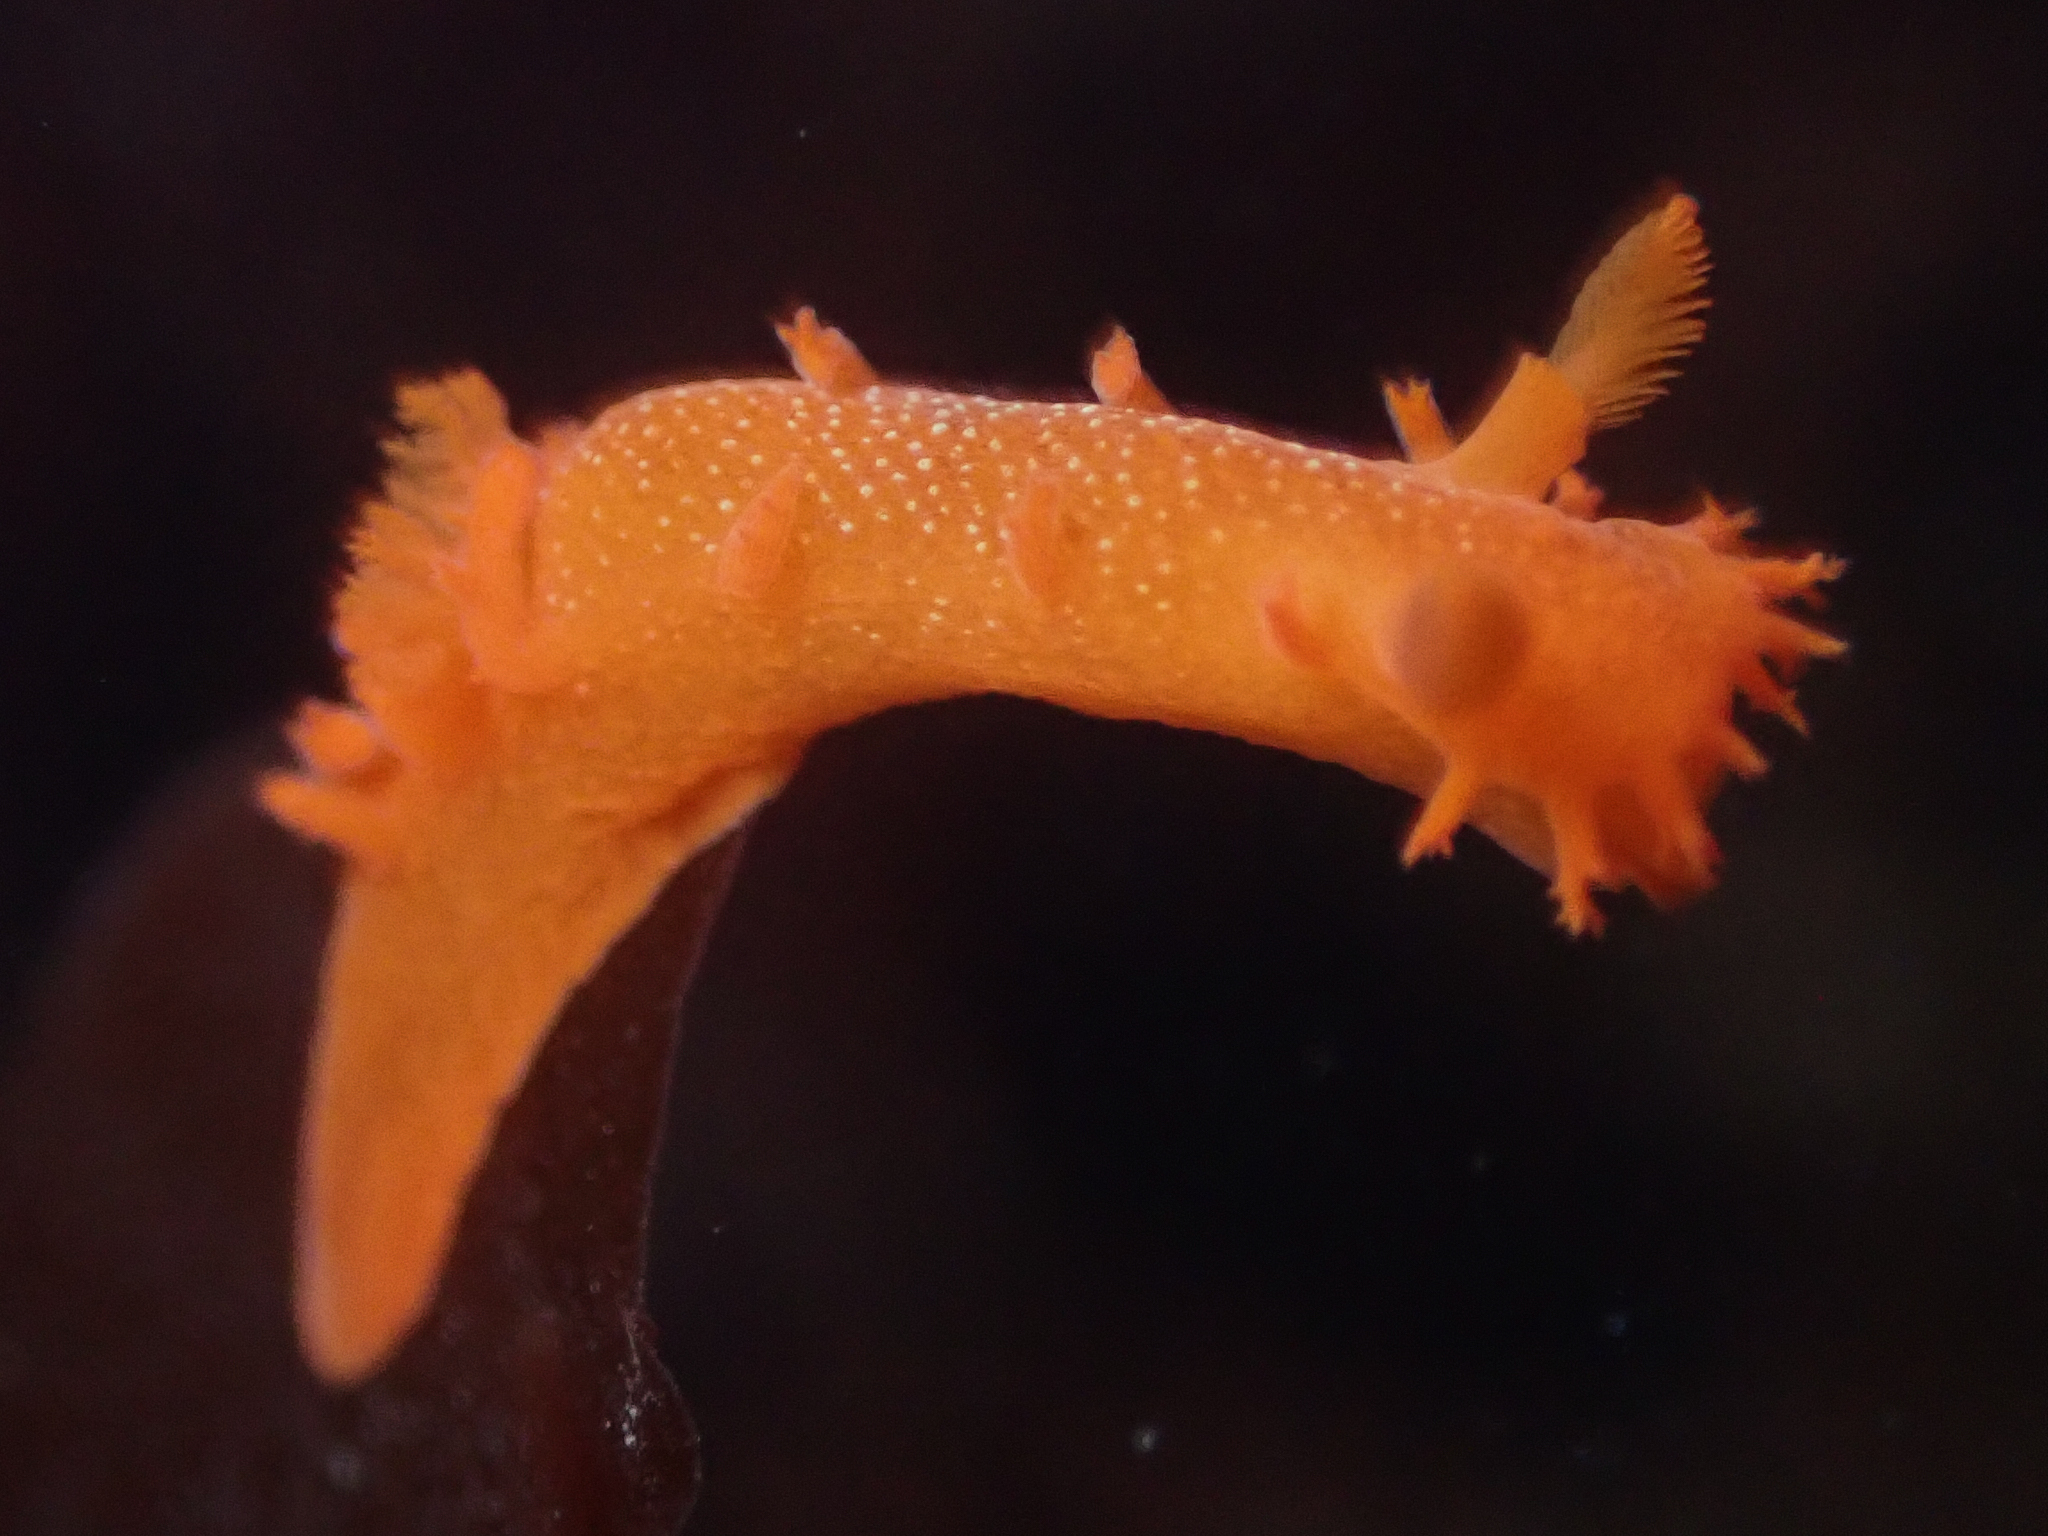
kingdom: Animalia
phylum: Mollusca
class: Gastropoda
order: Nudibranchia
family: Polyceridae
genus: Triopha
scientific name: Triopha maculata
